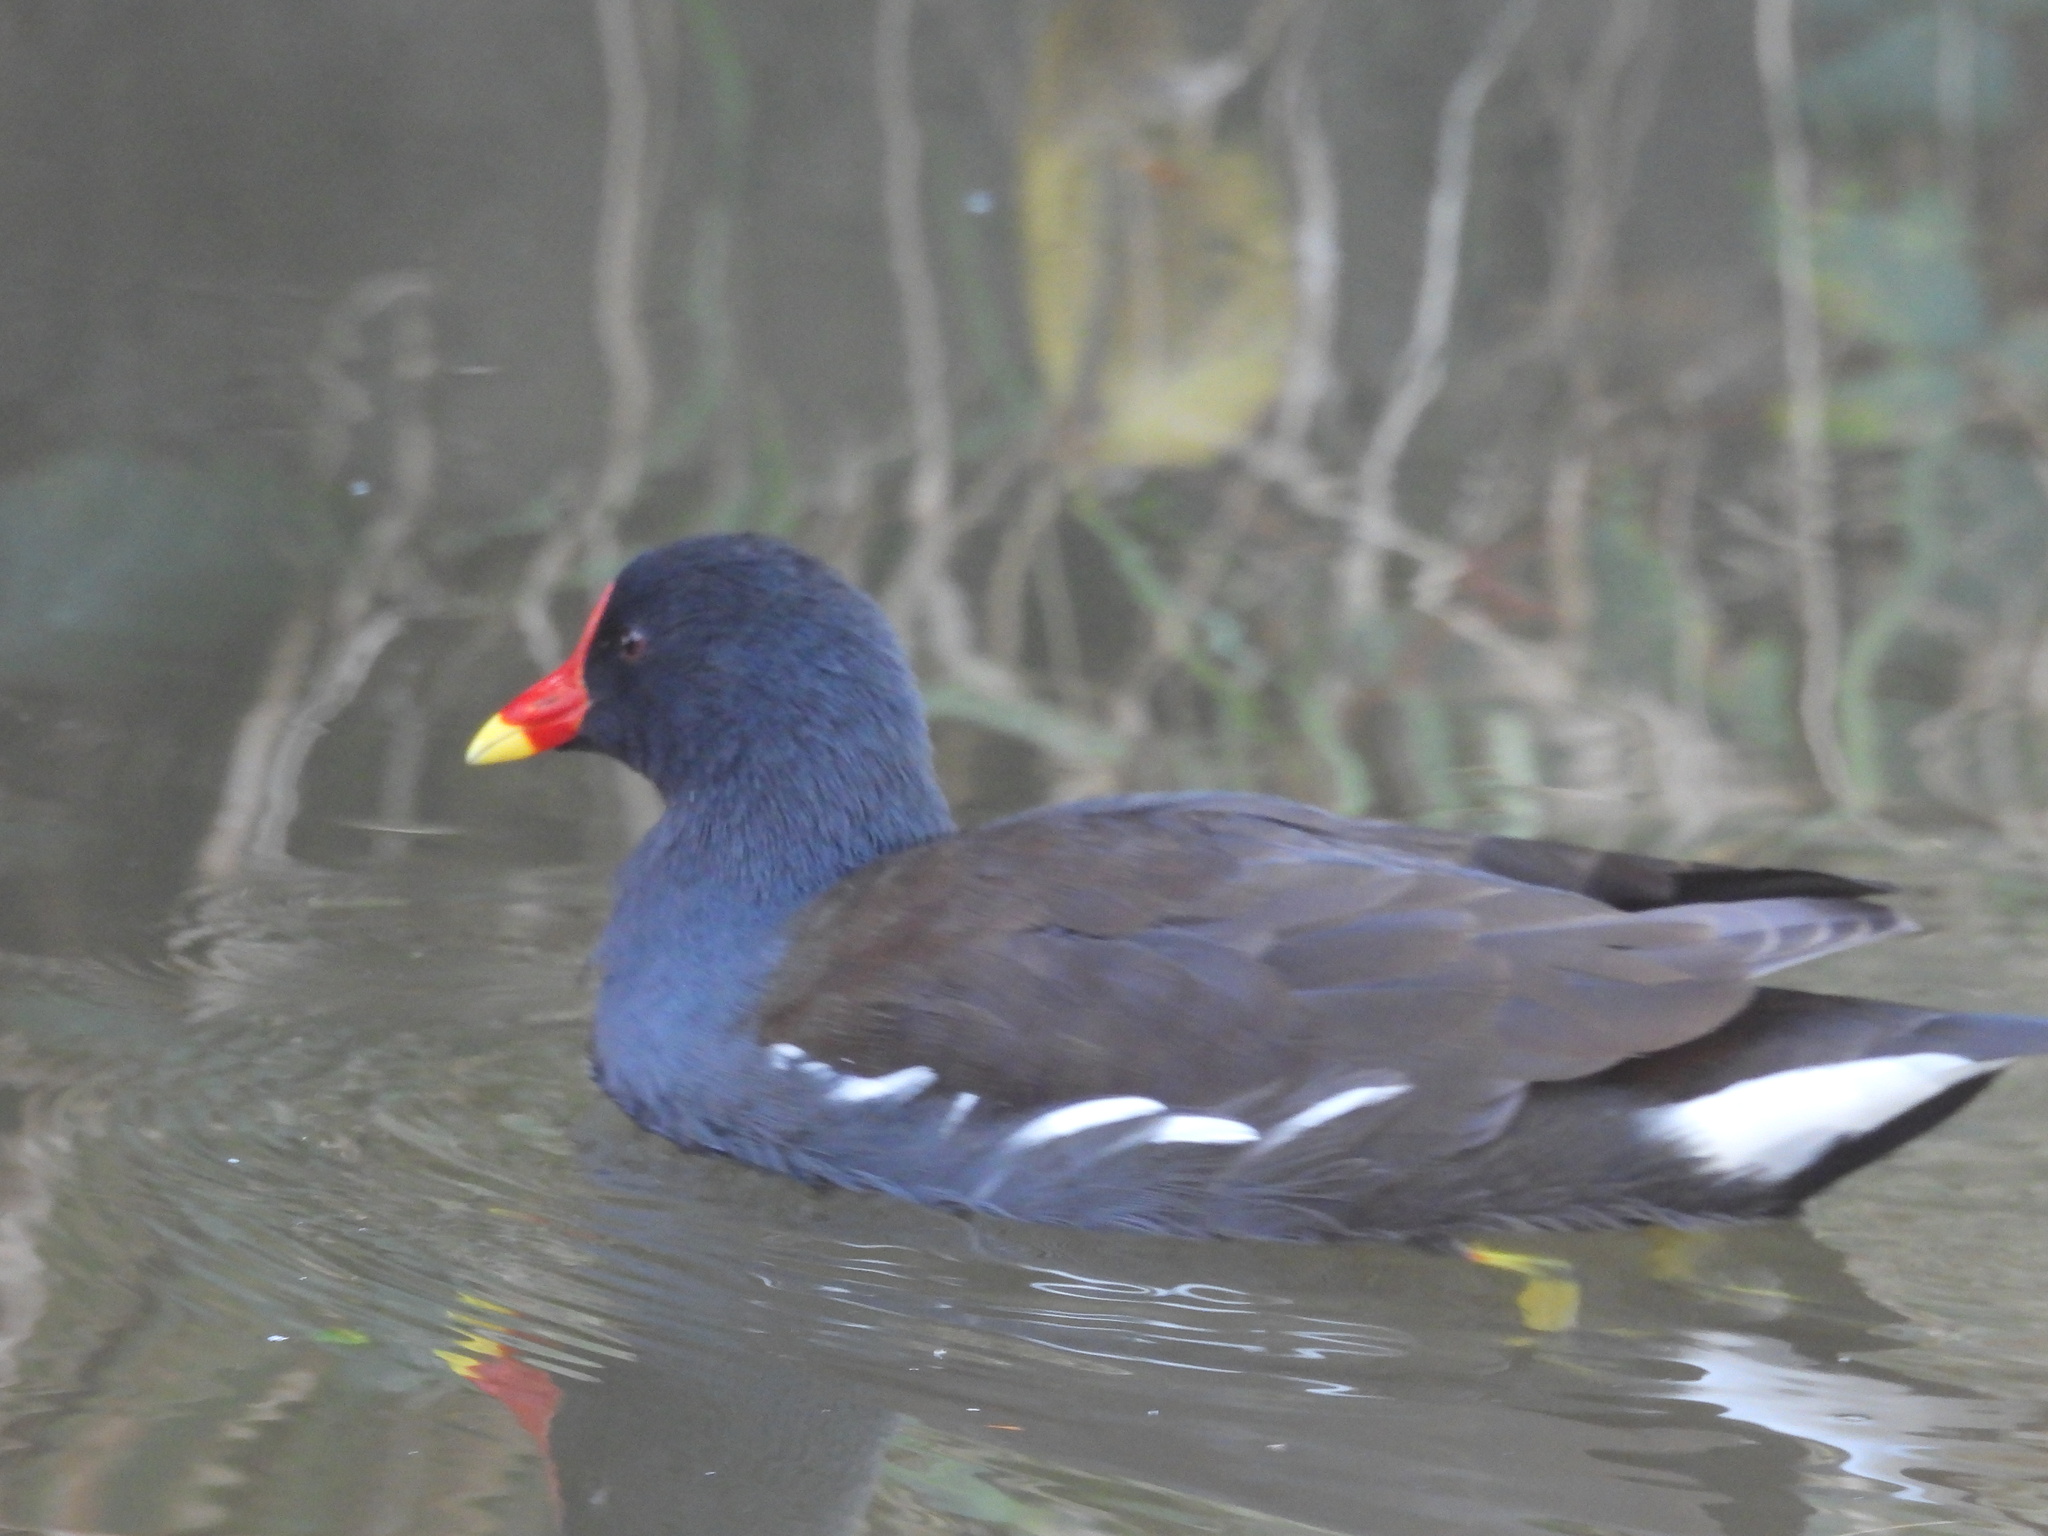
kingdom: Animalia
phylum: Chordata
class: Aves
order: Gruiformes
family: Rallidae
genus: Gallinula
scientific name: Gallinula chloropus
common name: Common moorhen
